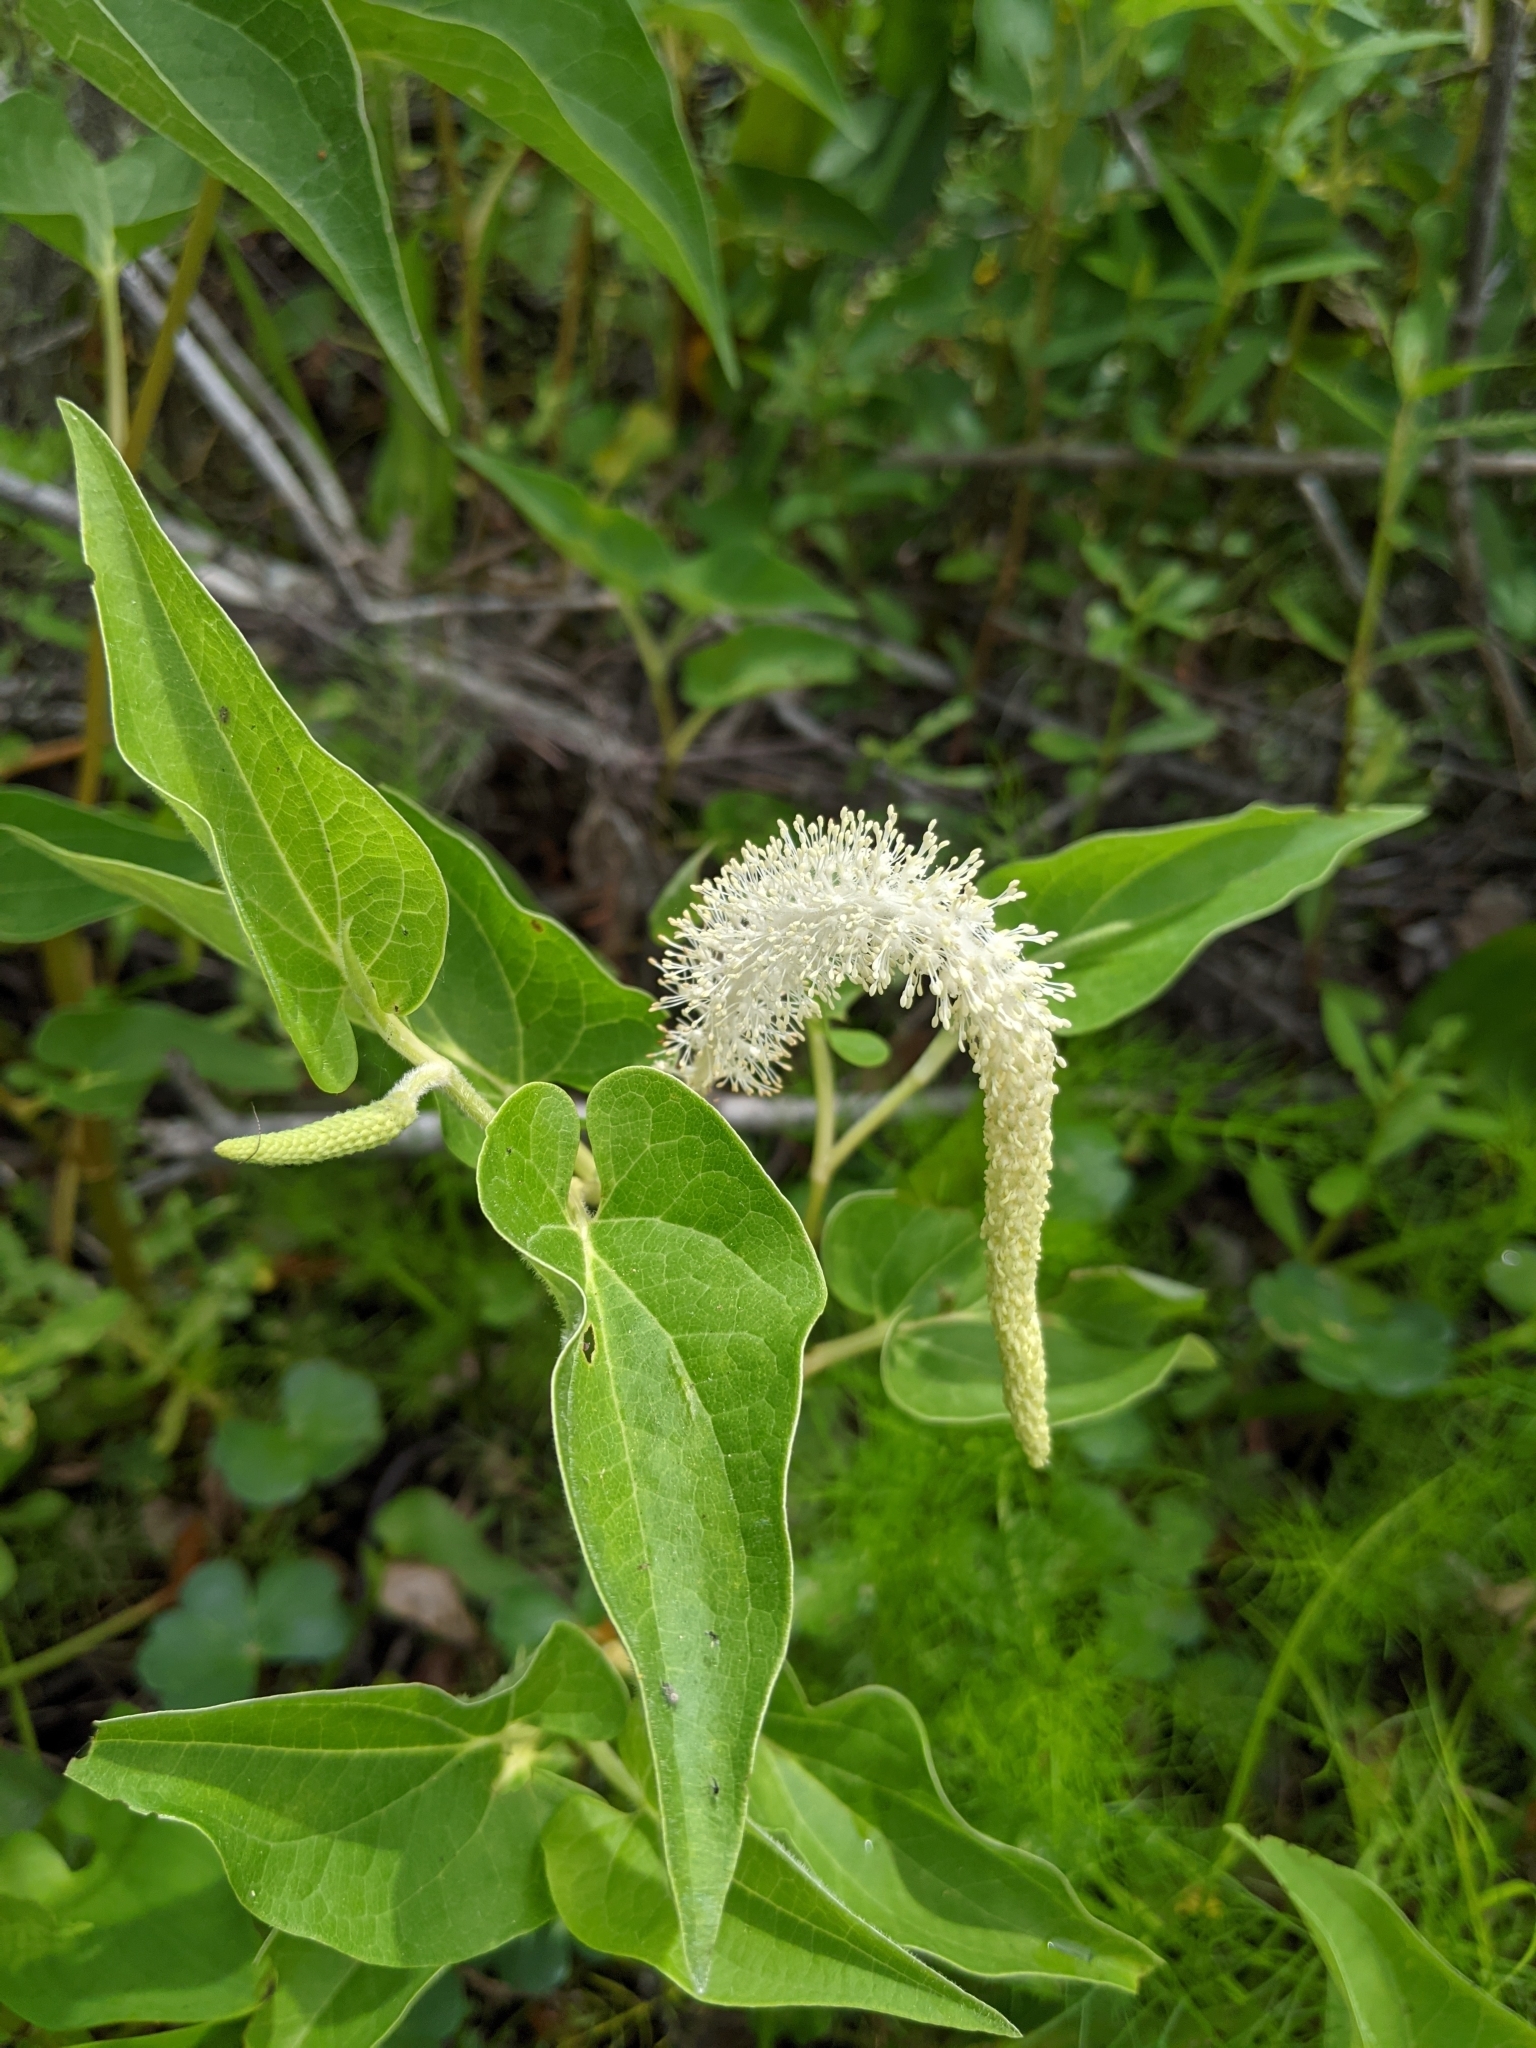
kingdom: Plantae
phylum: Tracheophyta
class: Magnoliopsida
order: Piperales
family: Saururaceae
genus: Saururus
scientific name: Saururus cernuus
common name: Lizard's-tail
